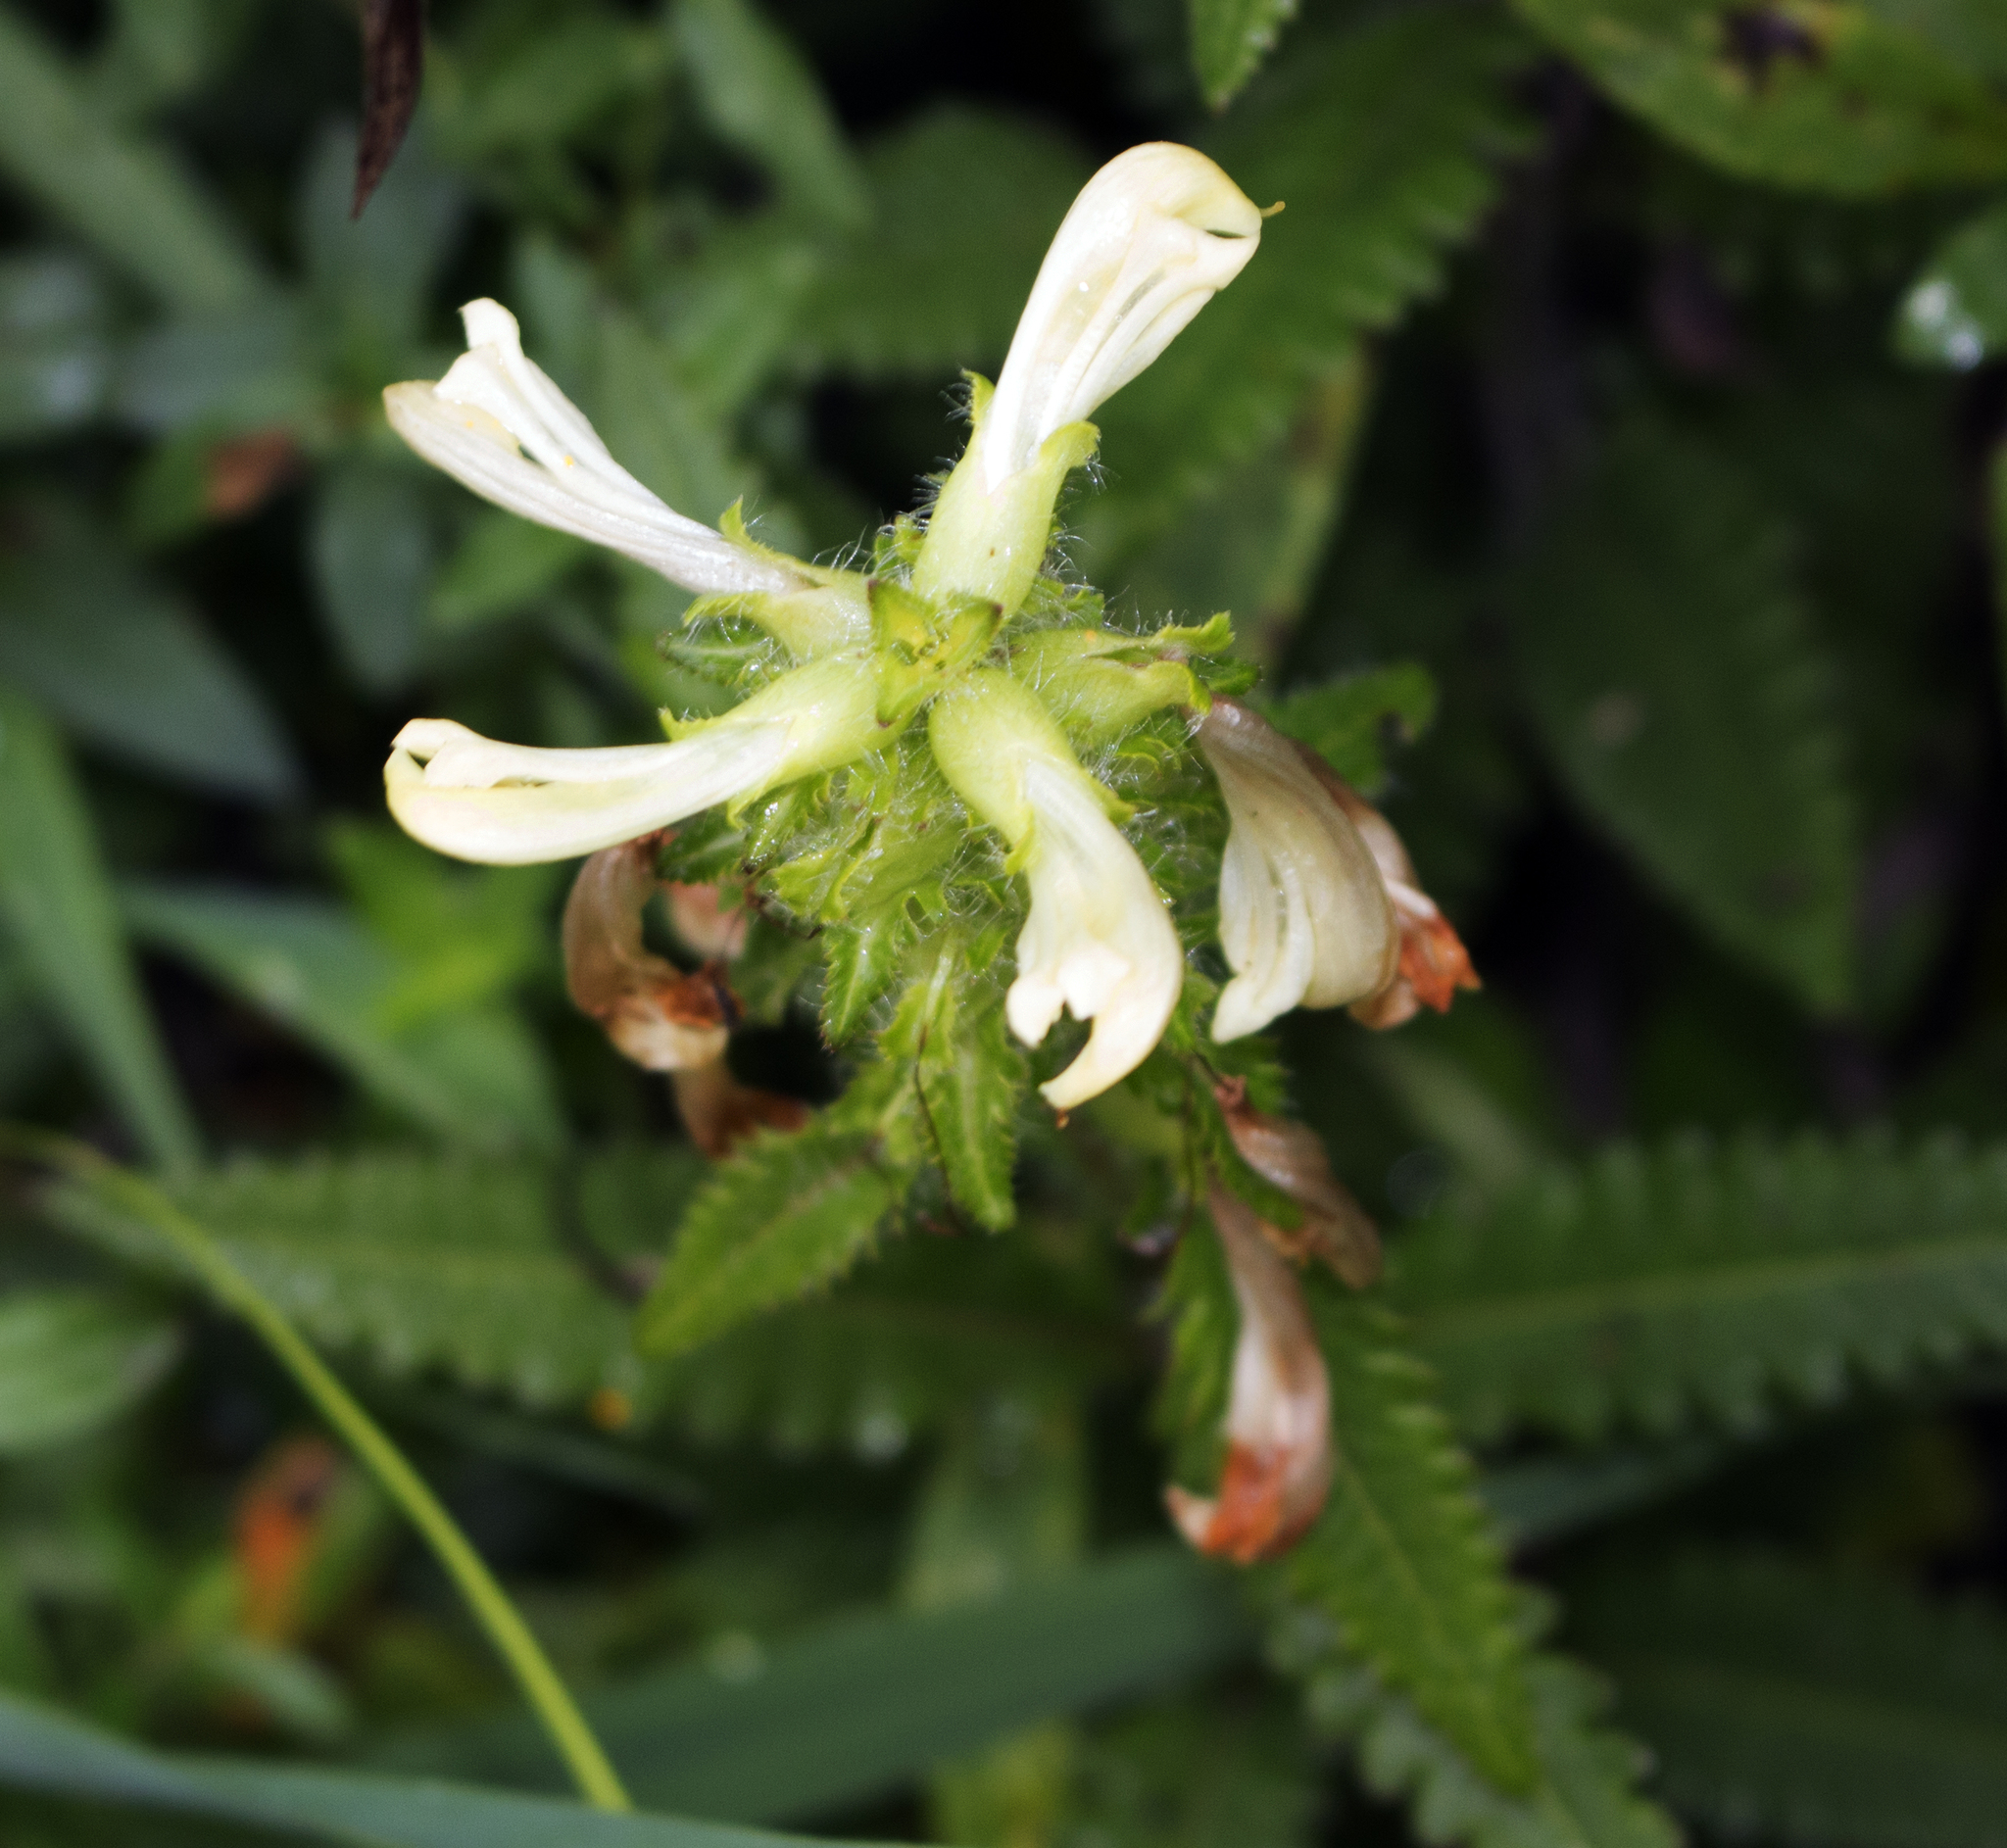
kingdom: Plantae
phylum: Tracheophyta
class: Magnoliopsida
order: Lamiales
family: Orobanchaceae
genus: Pedicularis
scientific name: Pedicularis lanceolata
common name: Swamp lousewort
